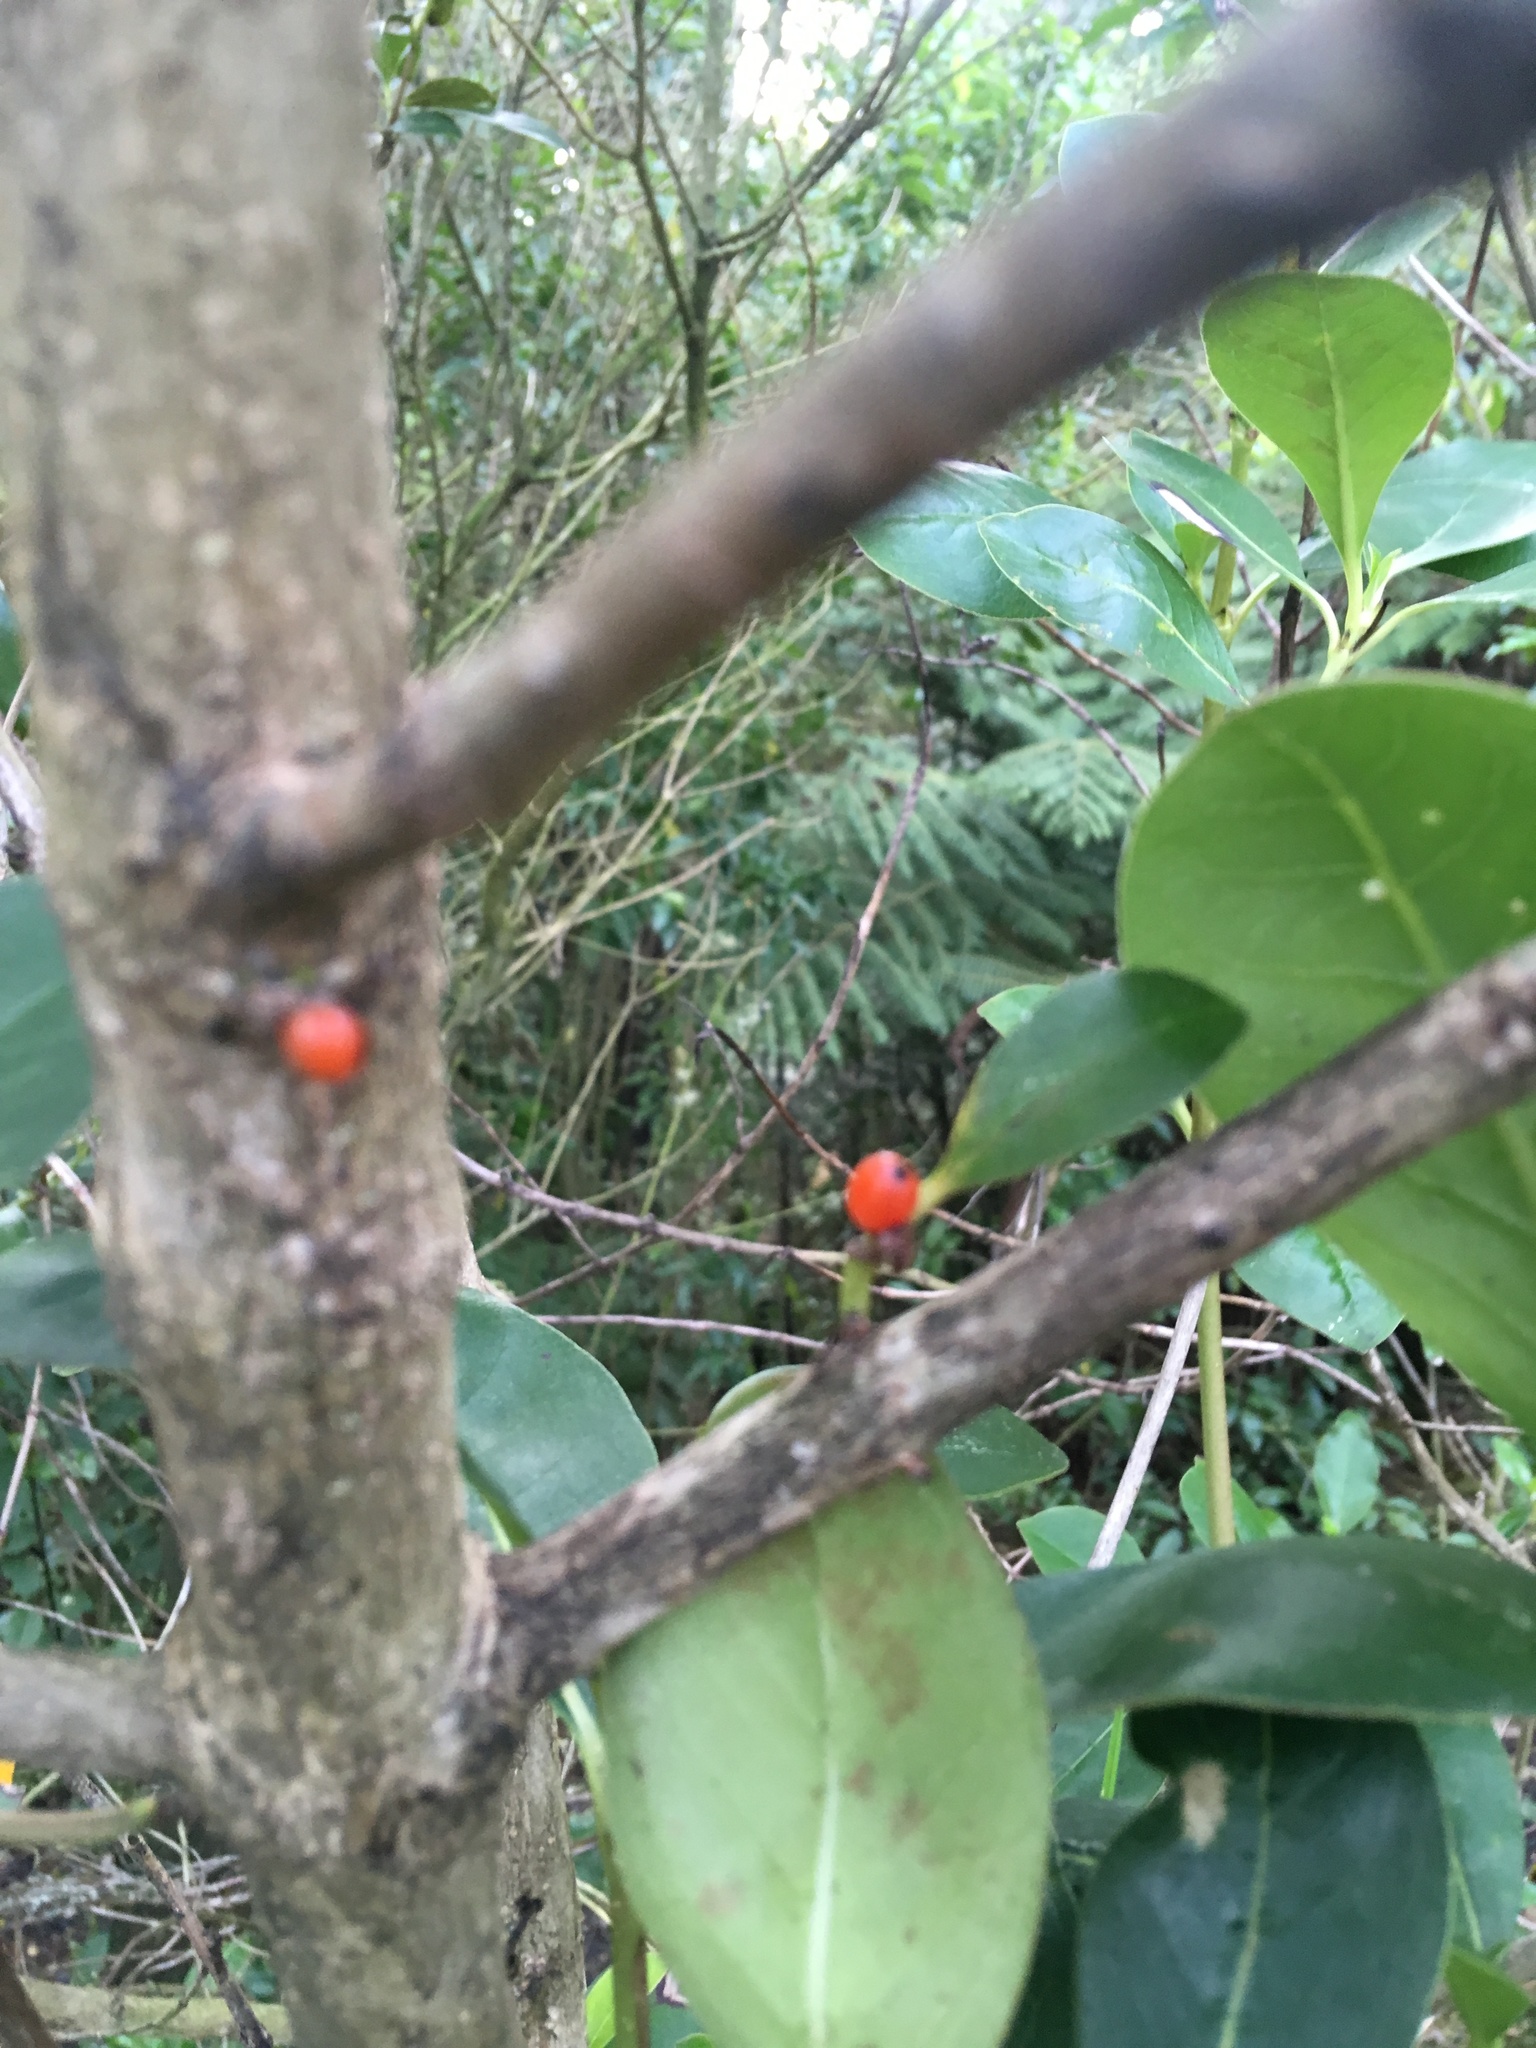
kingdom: Plantae
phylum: Tracheophyta
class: Magnoliopsida
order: Gentianales
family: Rubiaceae
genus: Coprosma
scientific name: Coprosma robusta
